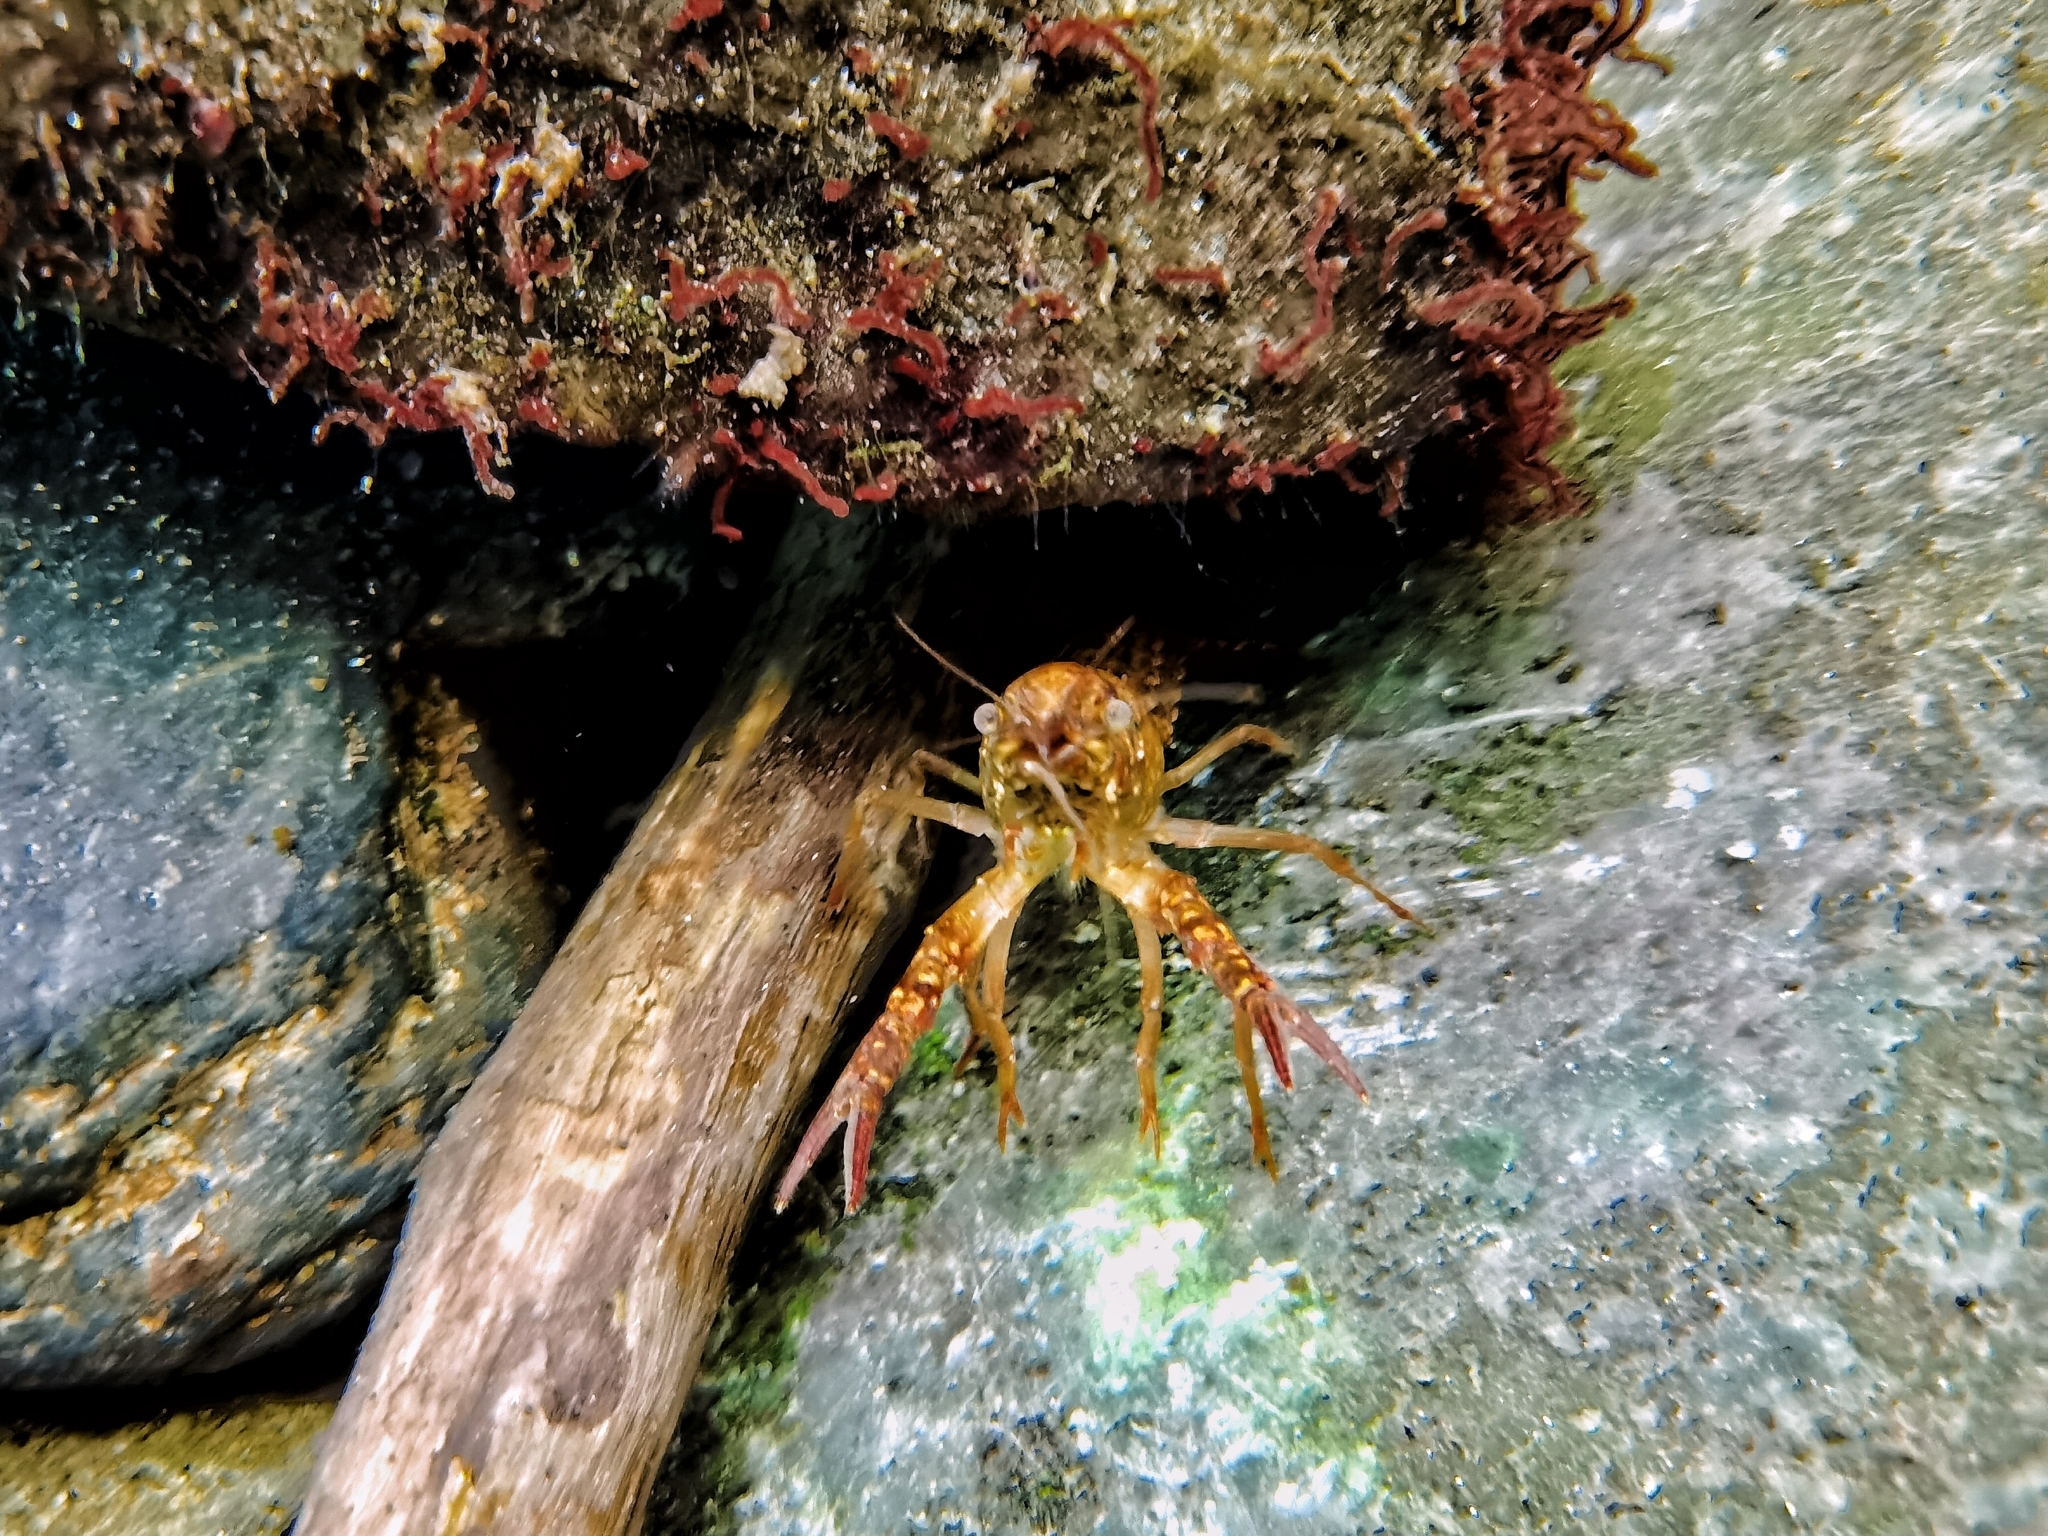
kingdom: Animalia
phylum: Arthropoda
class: Malacostraca
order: Decapoda
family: Cambaridae
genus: Procambarus
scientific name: Procambarus clarkii
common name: Red swamp crayfish
